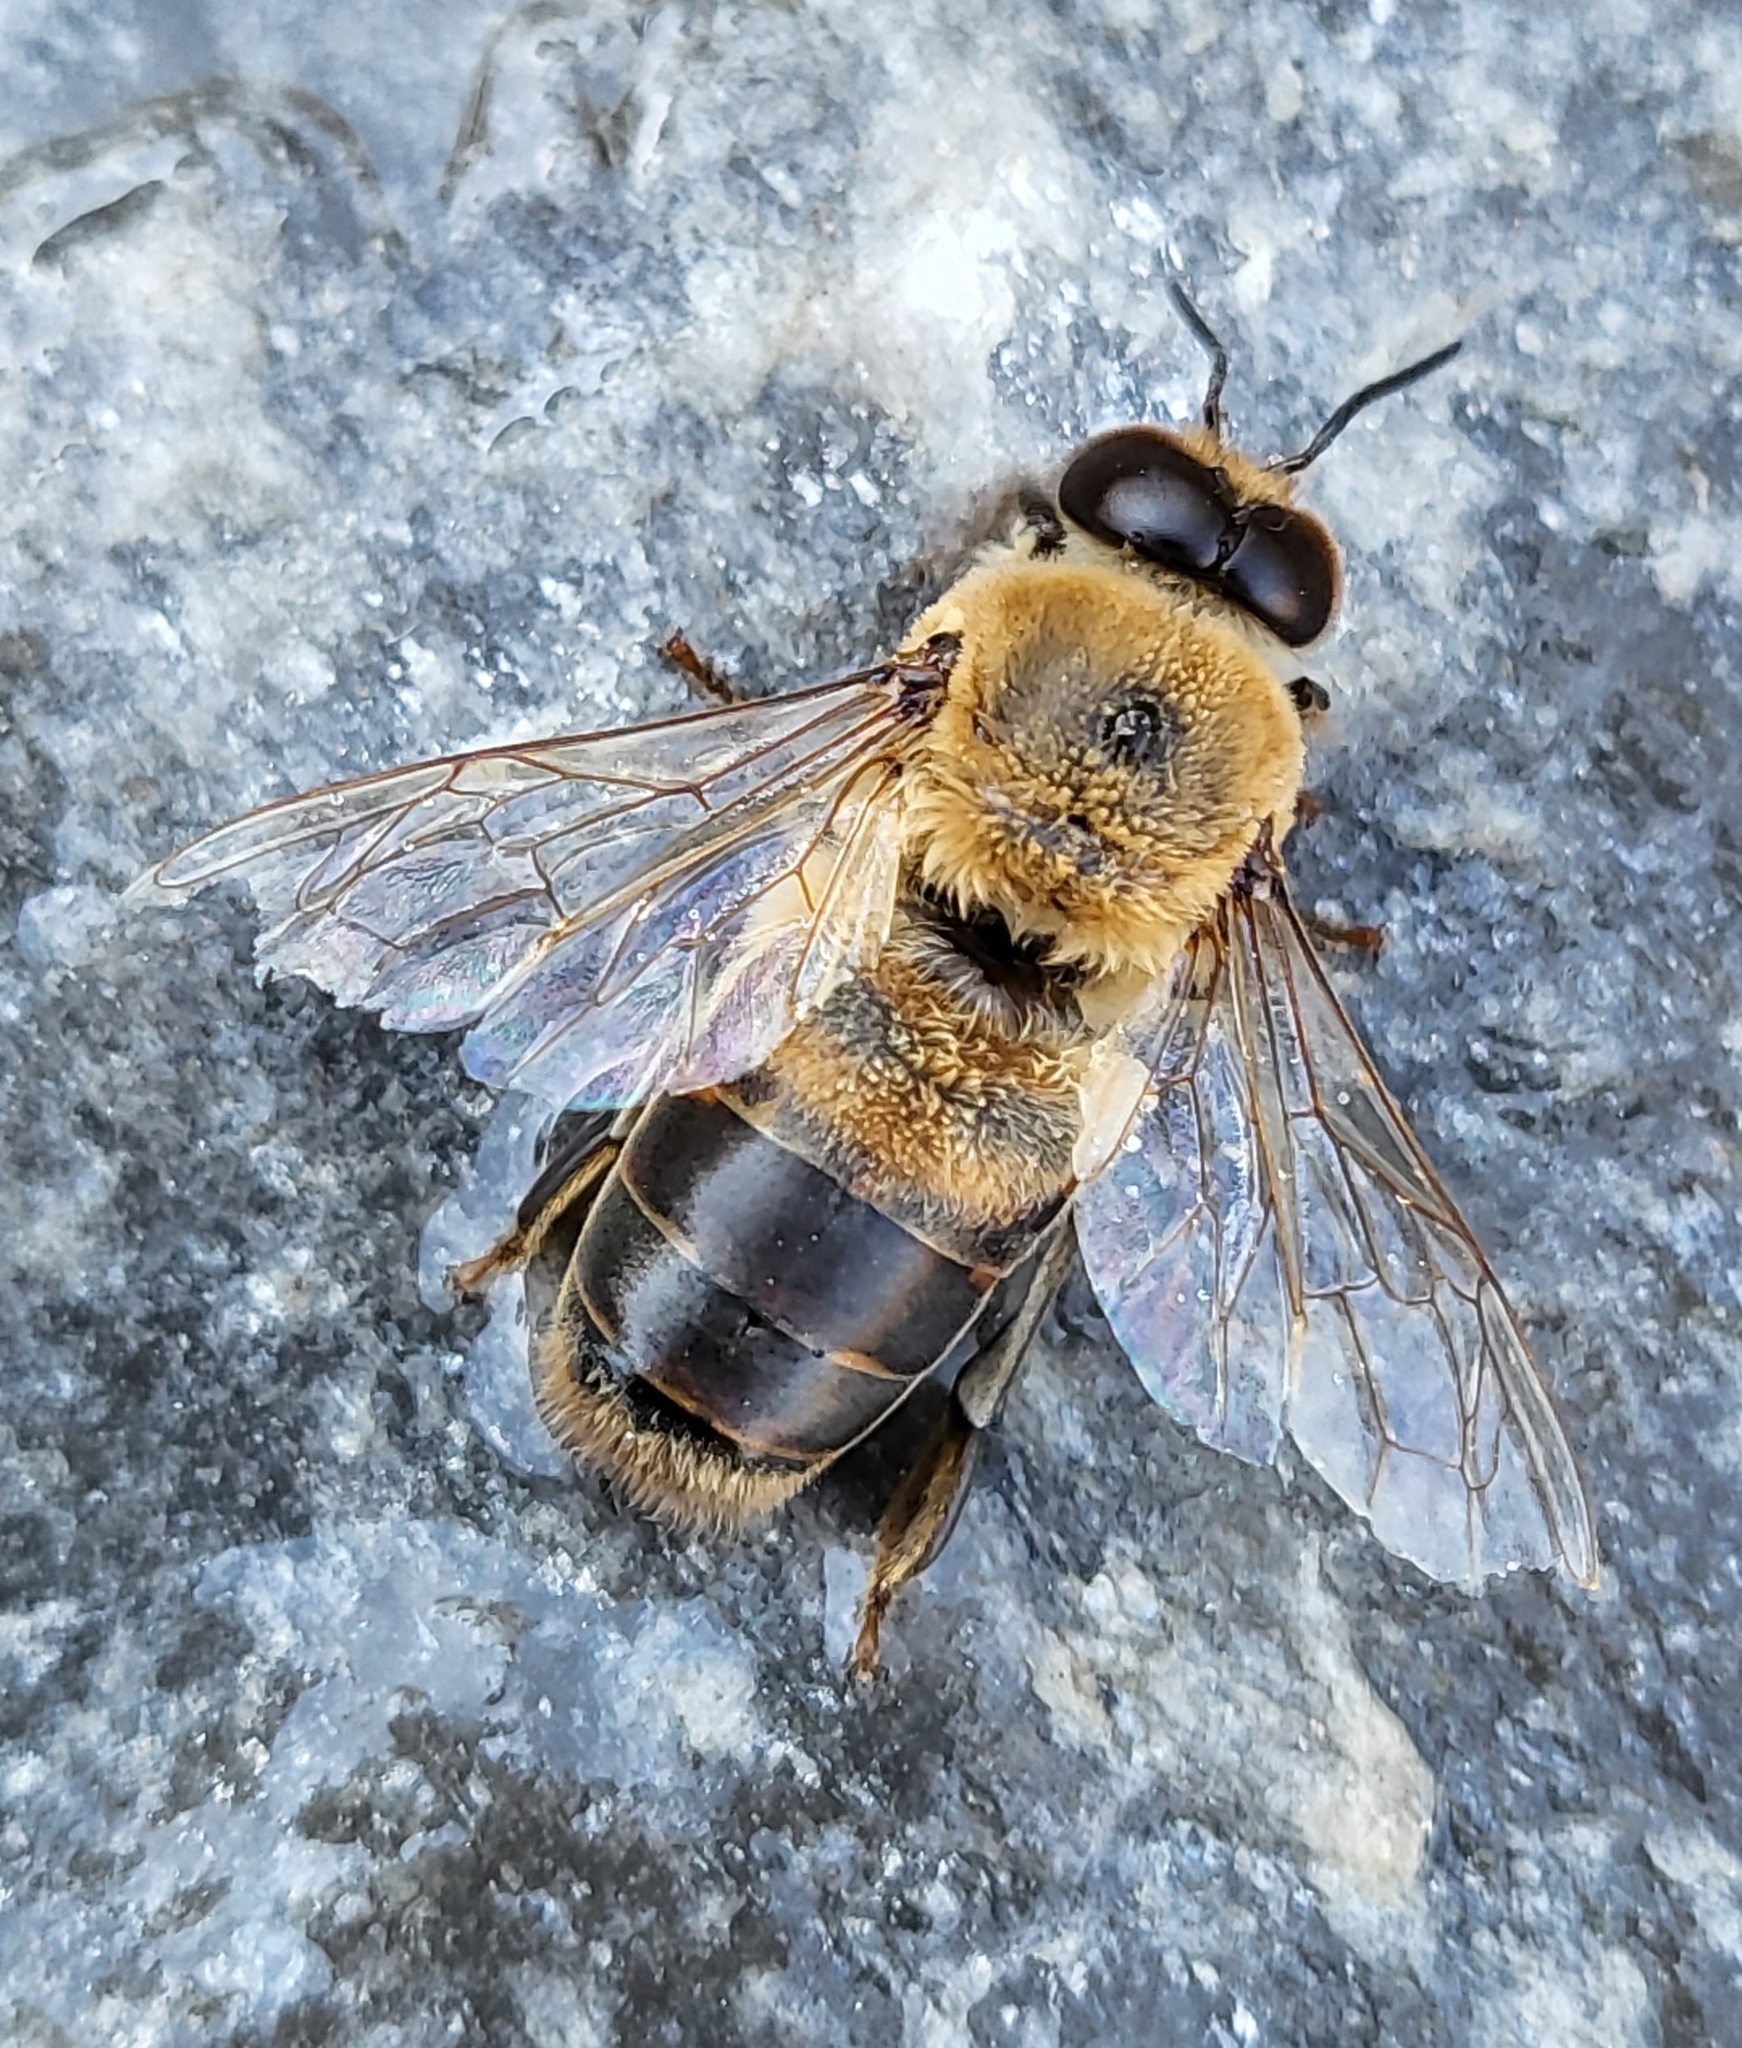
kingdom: Animalia
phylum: Arthropoda
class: Insecta
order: Hymenoptera
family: Apidae
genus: Apis
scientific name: Apis mellifera
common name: Honey bee
